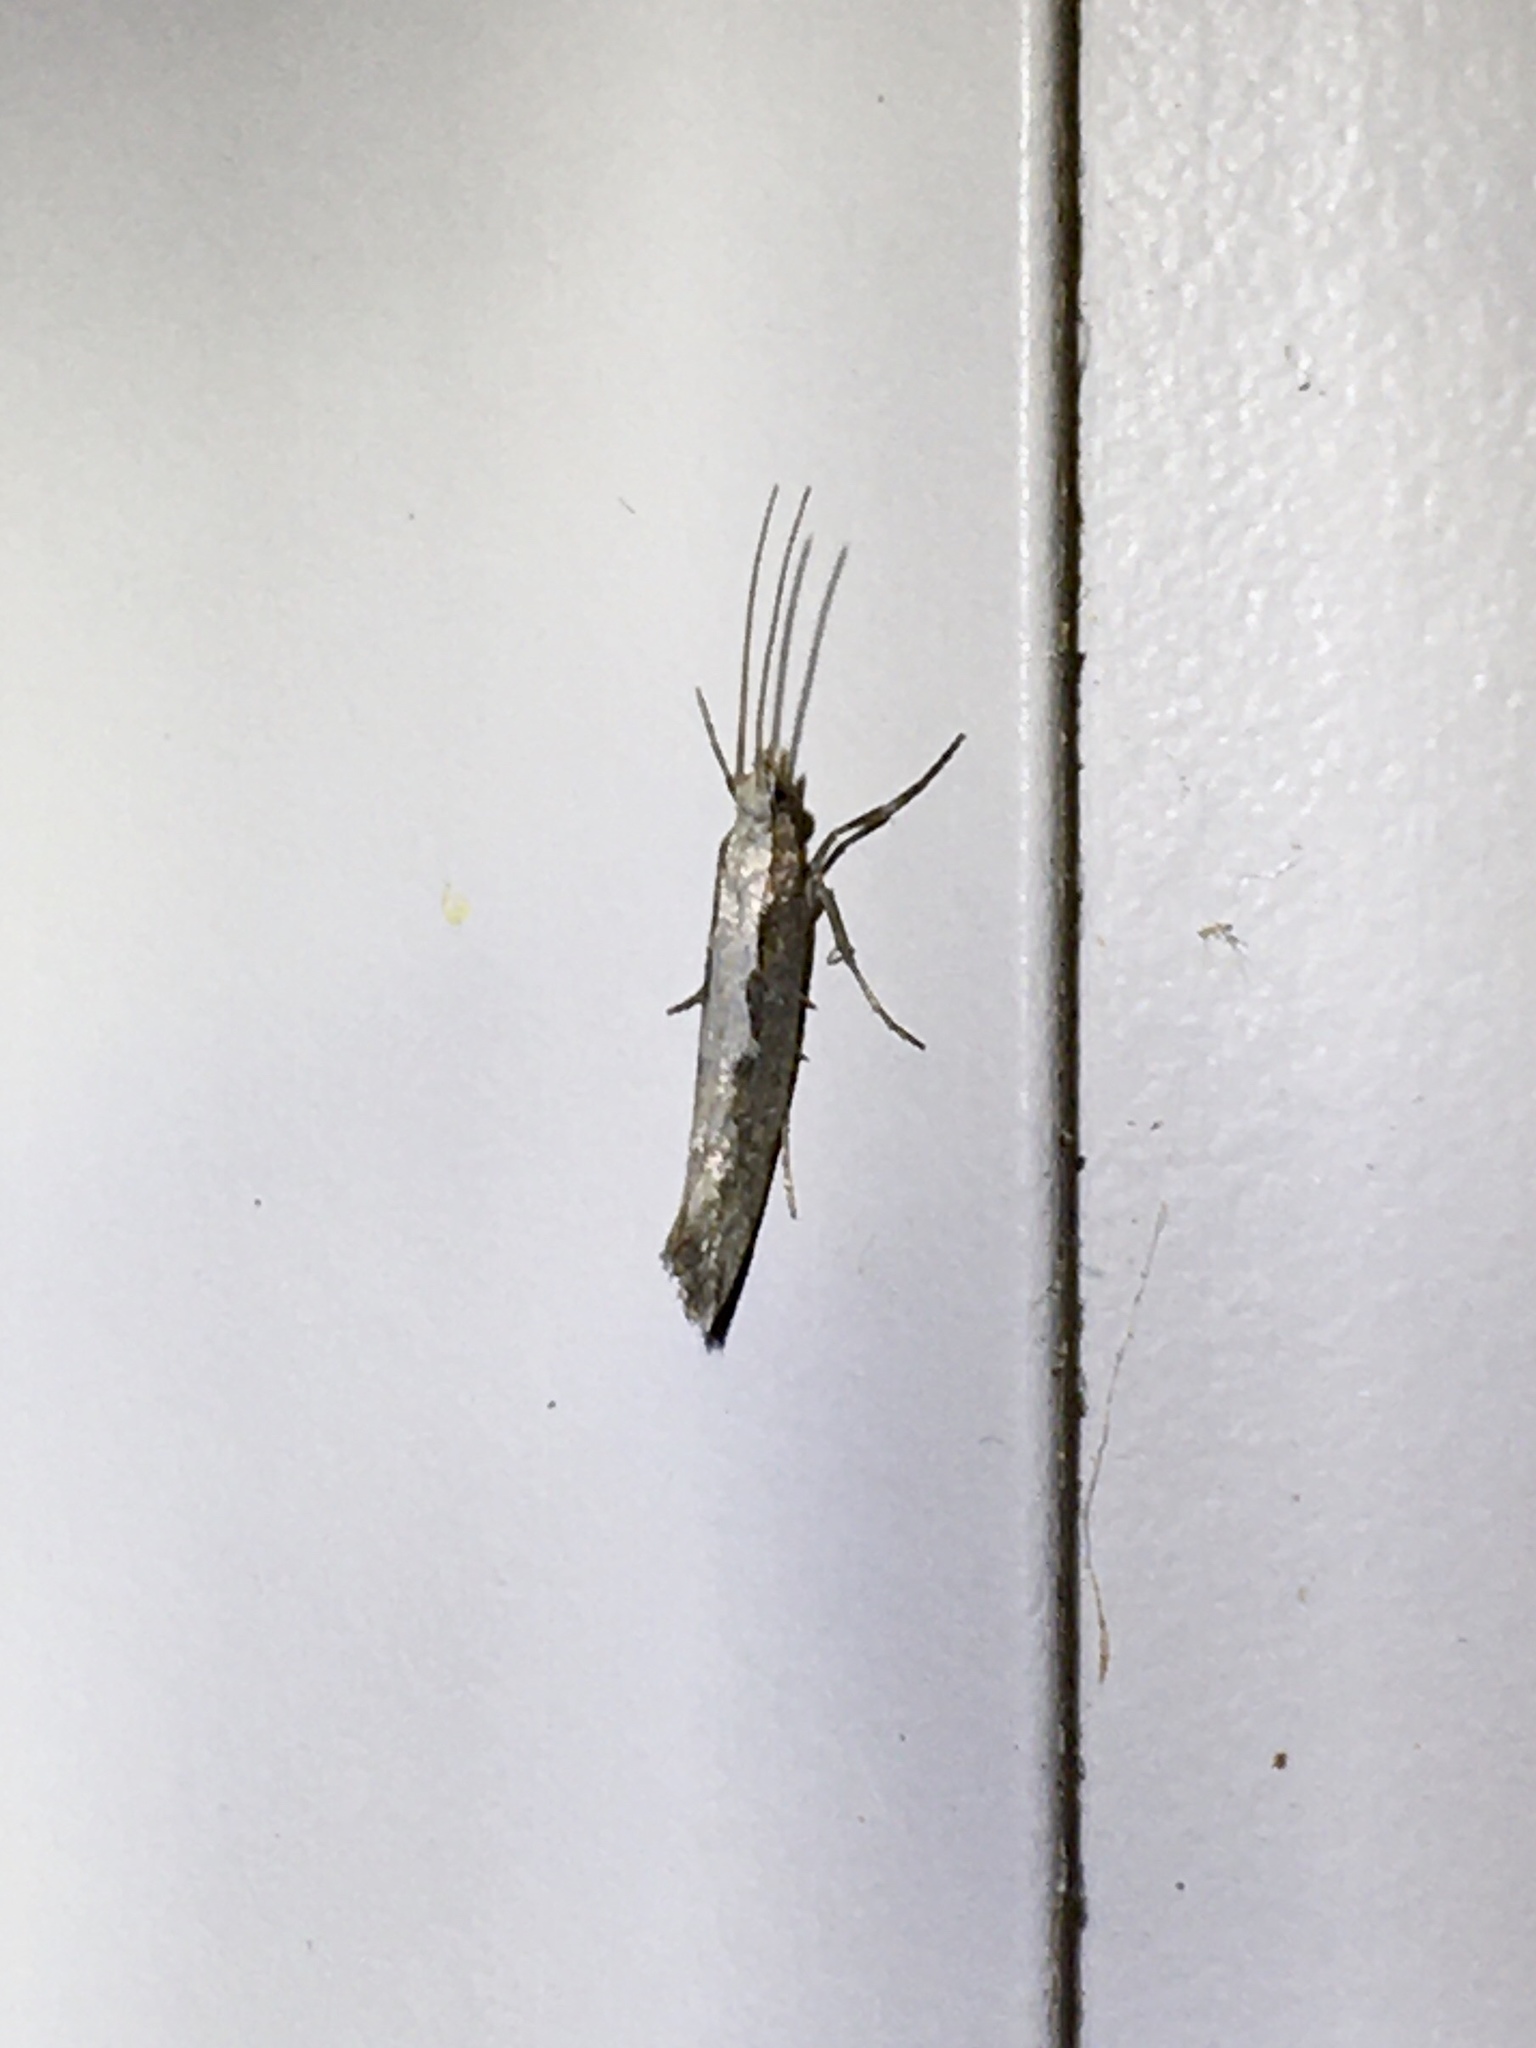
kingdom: Animalia
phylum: Arthropoda
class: Insecta
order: Lepidoptera
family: Plutellidae
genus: Plutella
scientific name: Plutella xylostella
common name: Diamond-back moth
